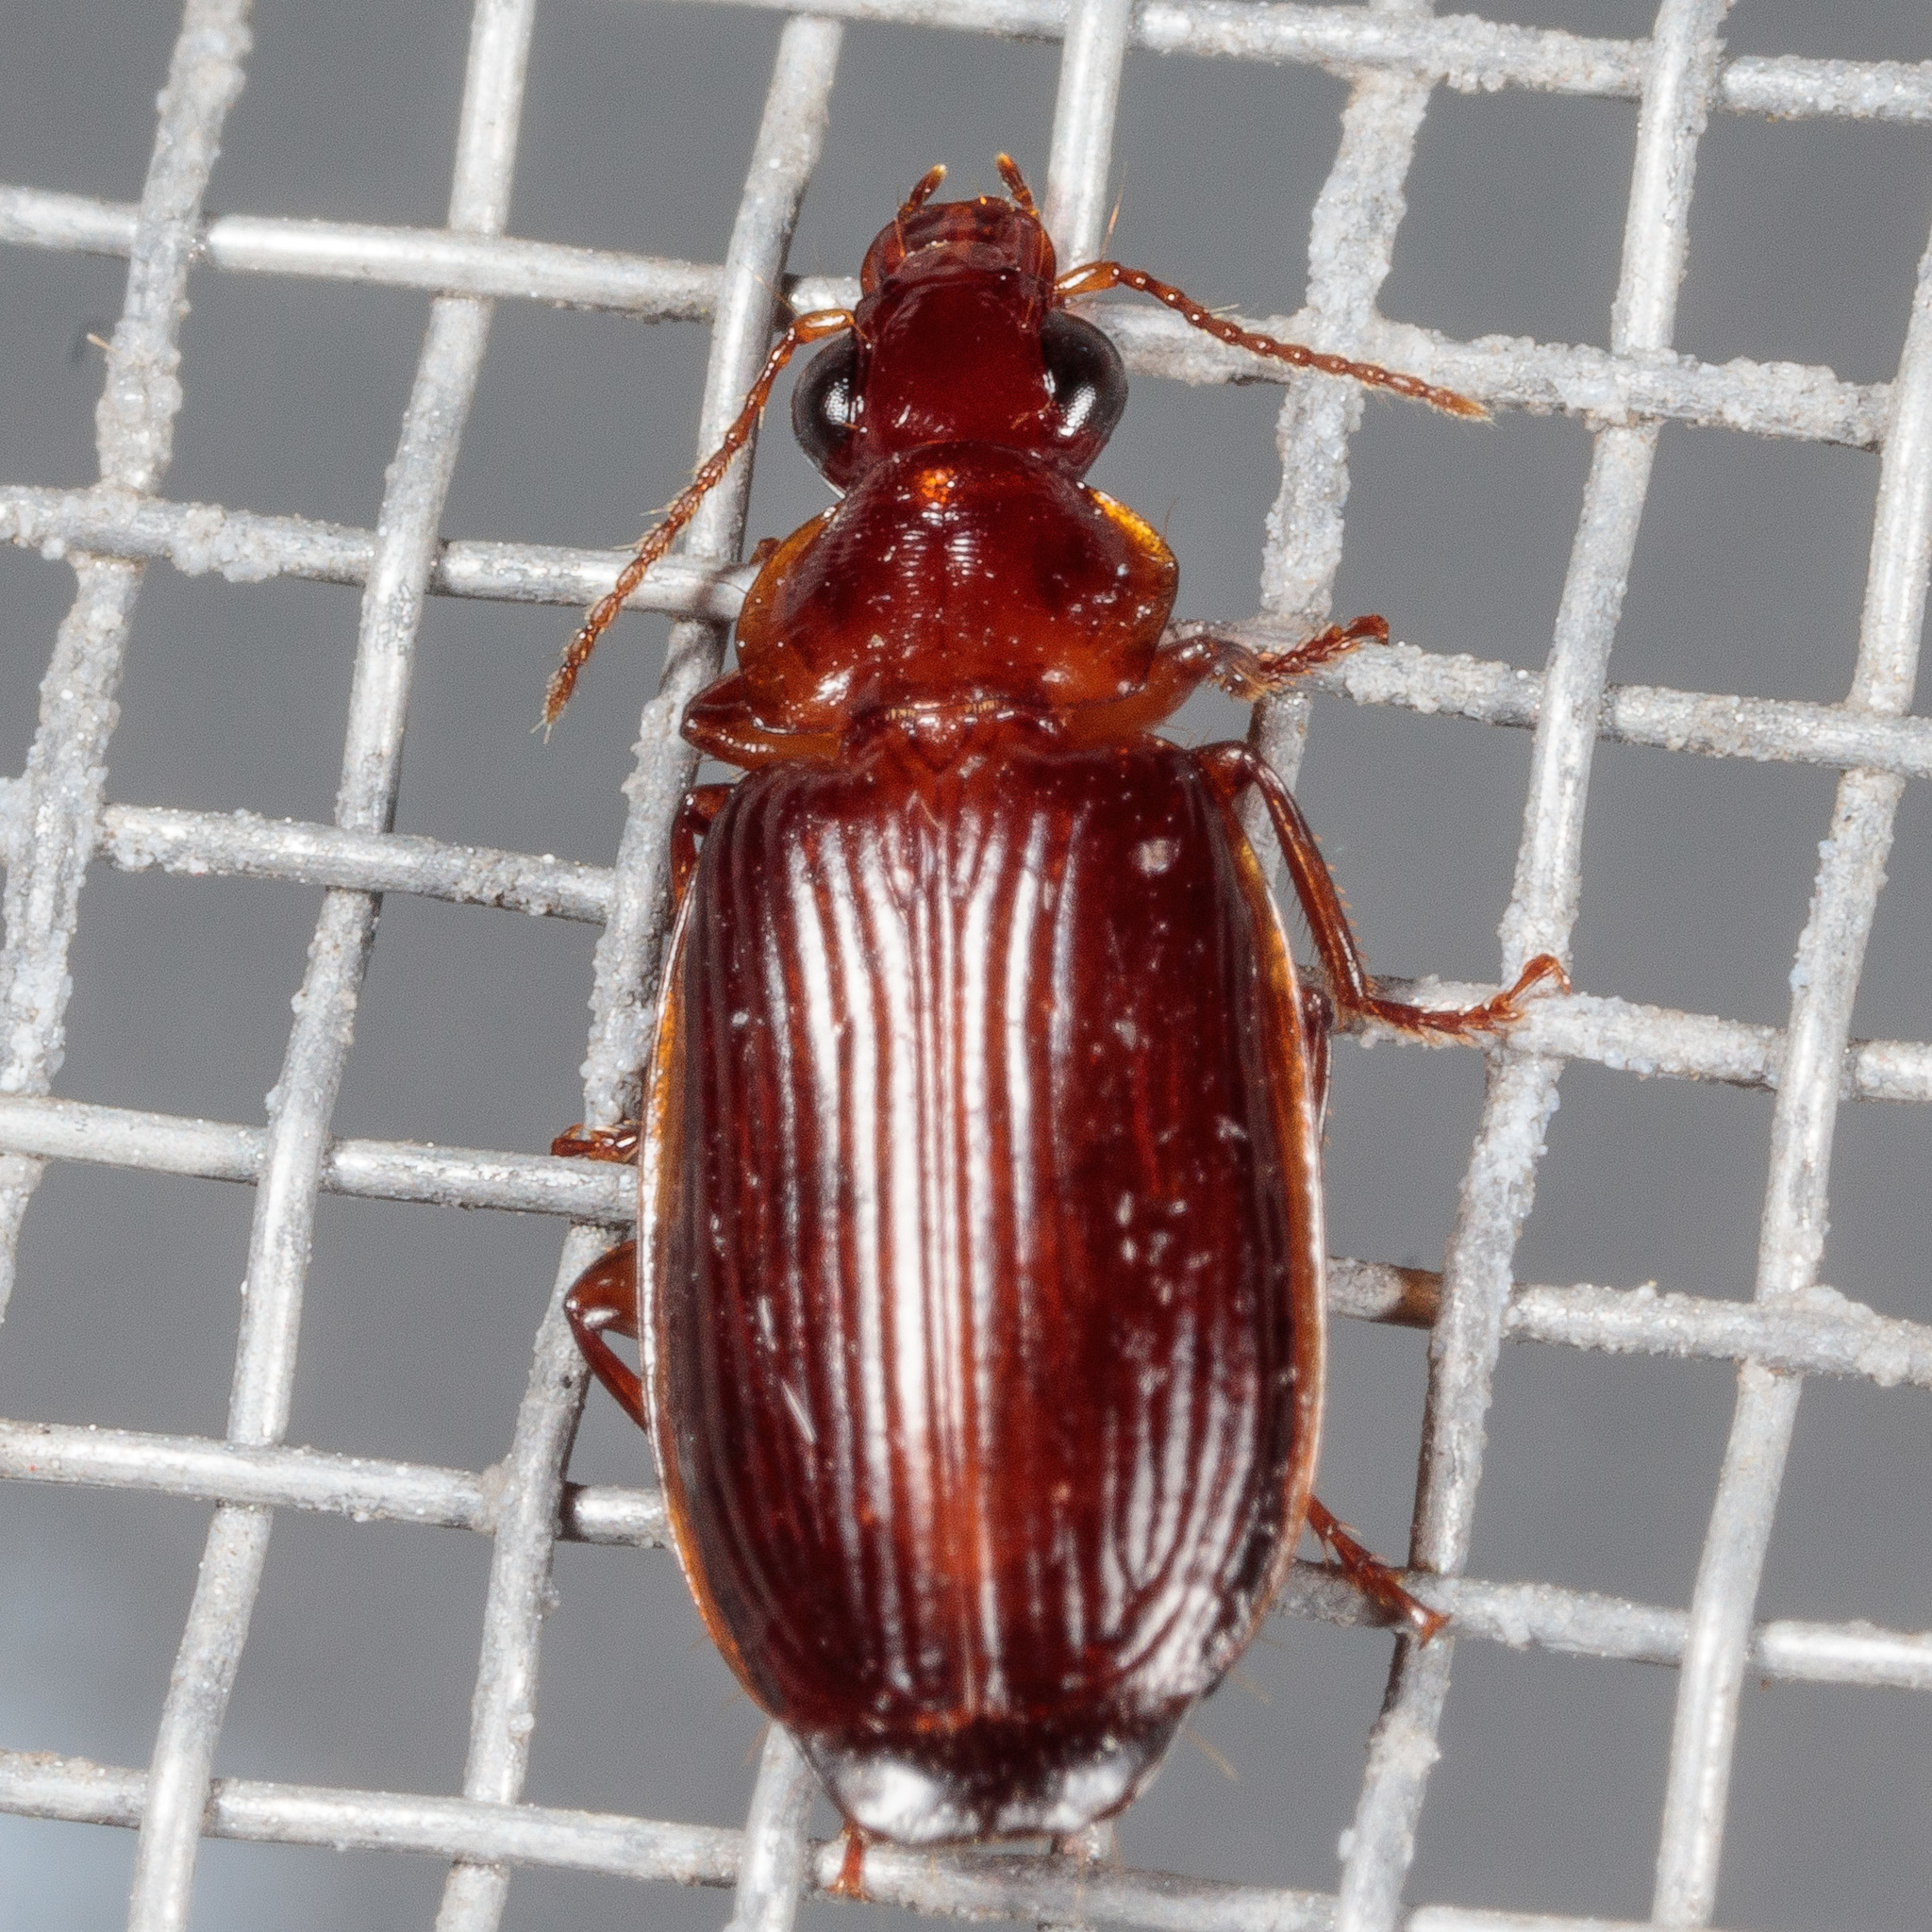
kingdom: Animalia
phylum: Arthropoda
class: Insecta
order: Coleoptera
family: Carabidae
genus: Plochionus
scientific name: Plochionus timidus
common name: Timid harp ground beetle
